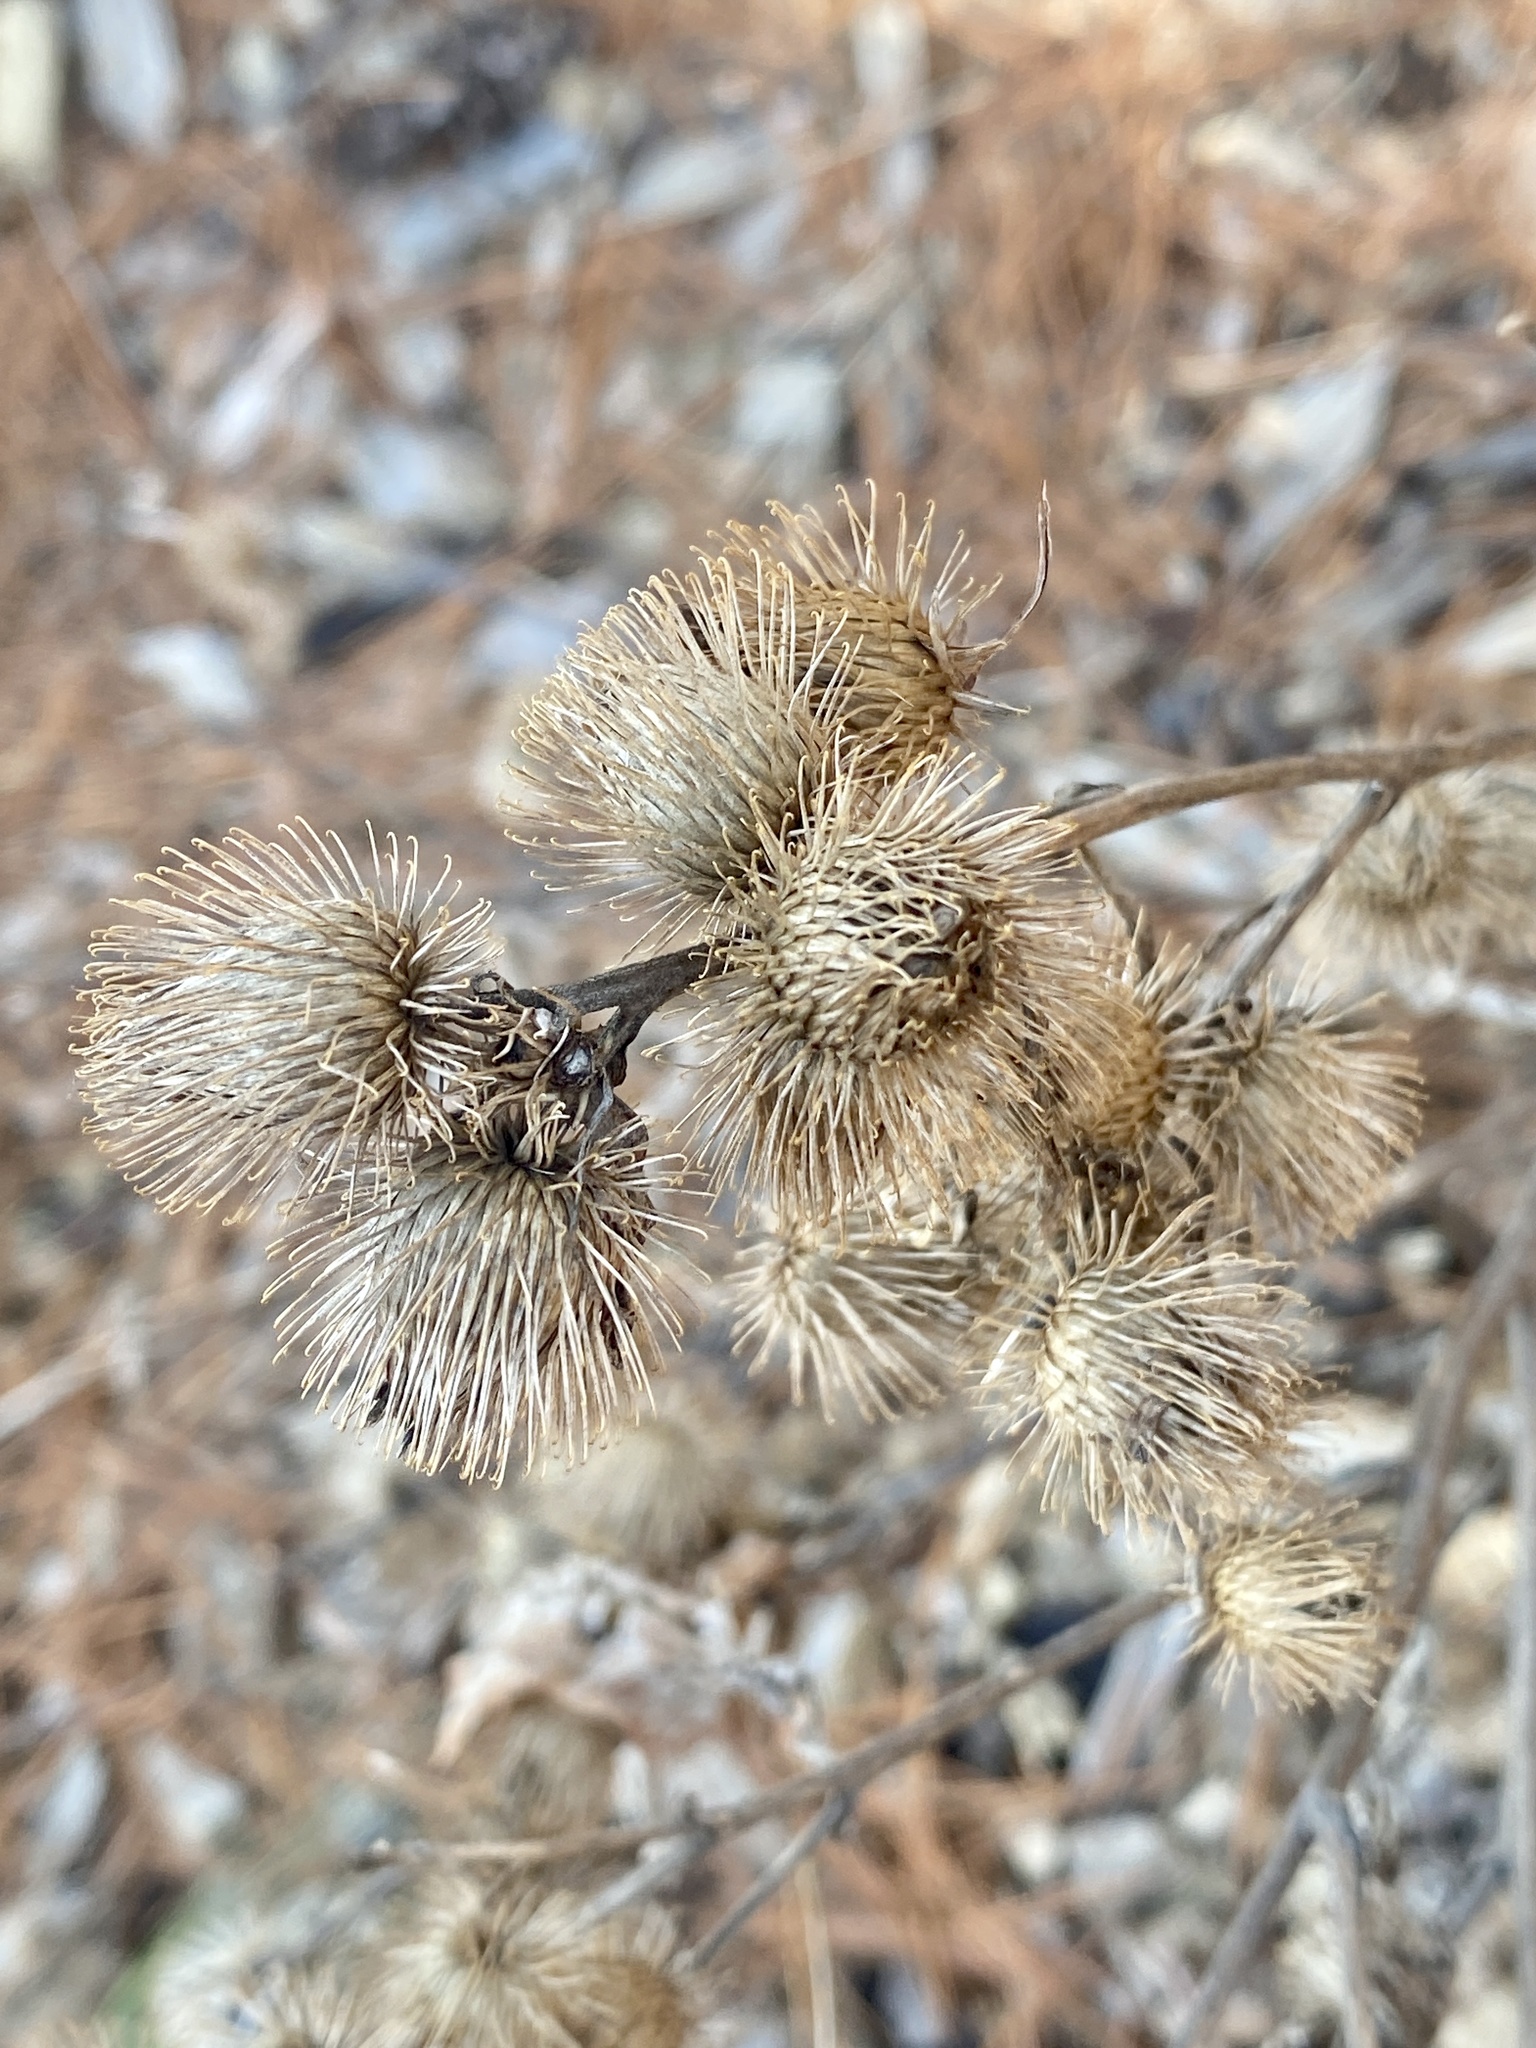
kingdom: Plantae
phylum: Tracheophyta
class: Magnoliopsida
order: Asterales
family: Asteraceae
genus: Arctium
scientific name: Arctium minus
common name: Lesser burdock
